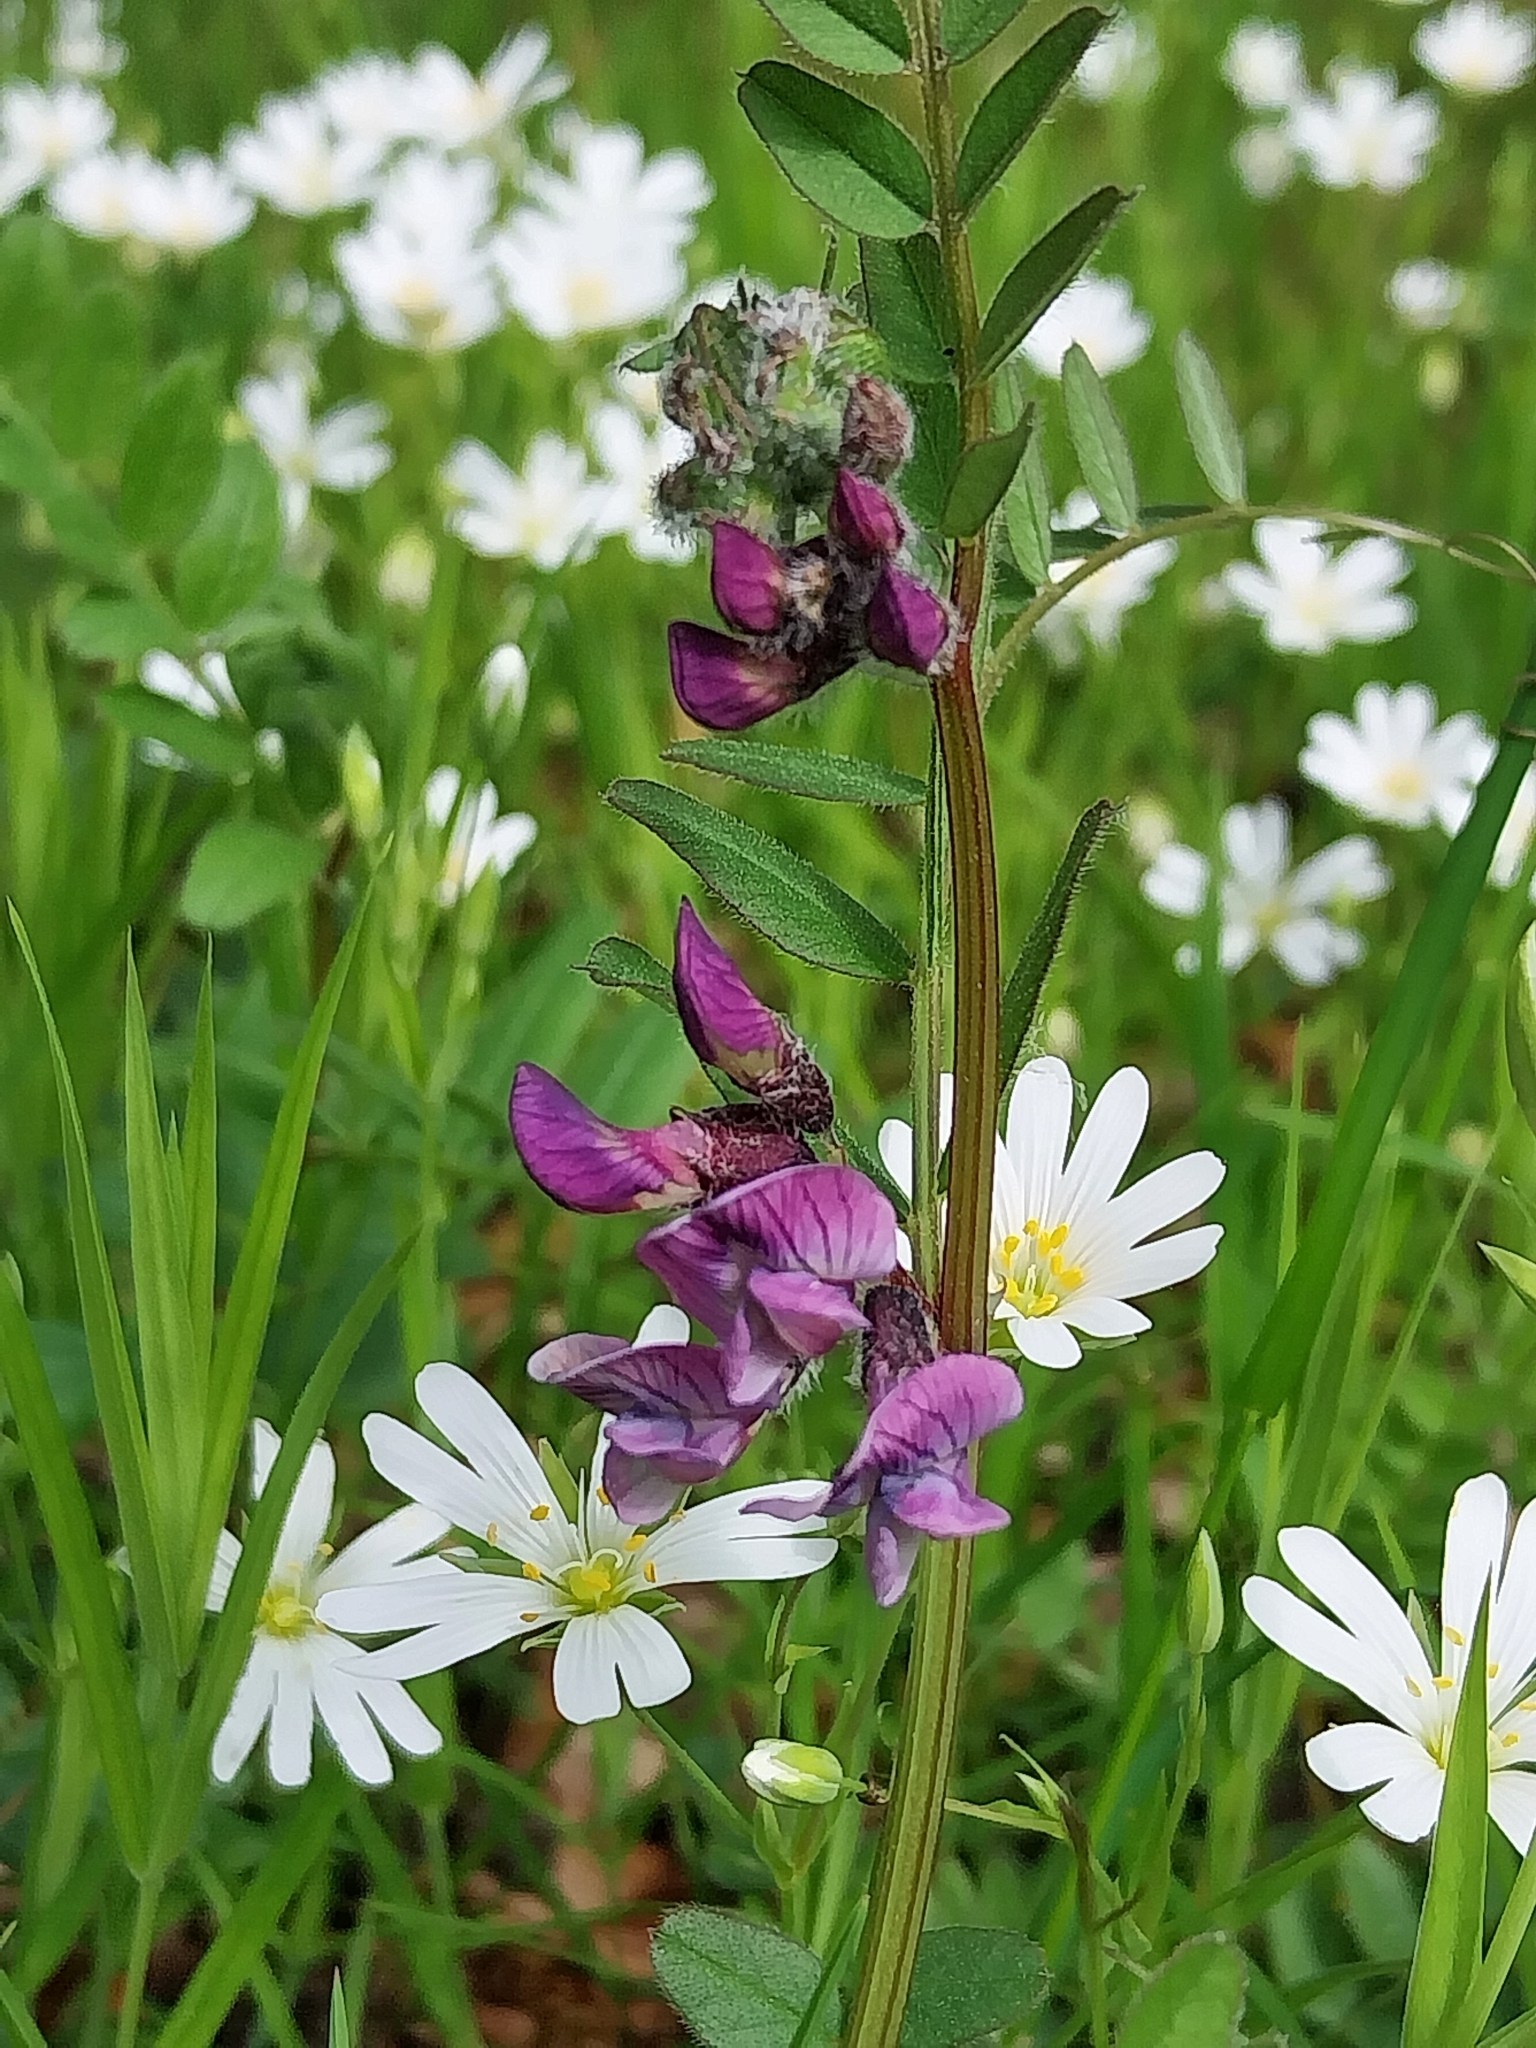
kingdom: Plantae
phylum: Tracheophyta
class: Magnoliopsida
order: Fabales
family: Fabaceae
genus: Vicia
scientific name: Vicia sepium
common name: Bush vetch
